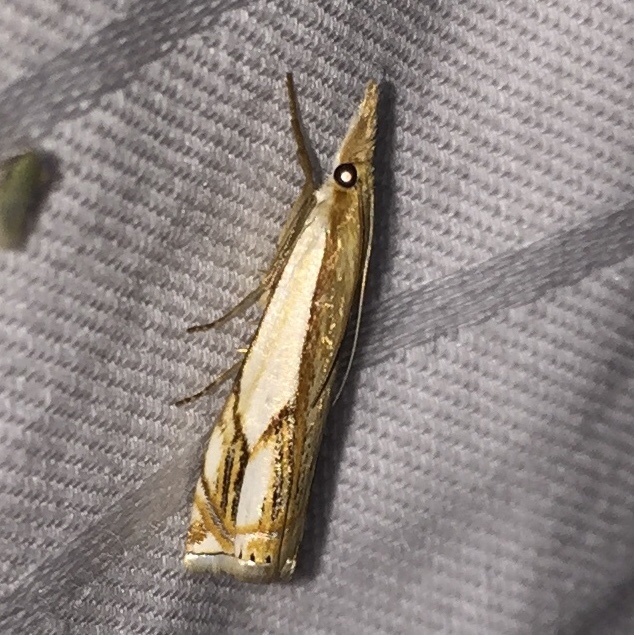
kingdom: Animalia
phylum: Arthropoda
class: Insecta
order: Lepidoptera
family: Crambidae
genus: Crambus
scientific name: Crambus agitatellus
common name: Double-banded grass-veneer
